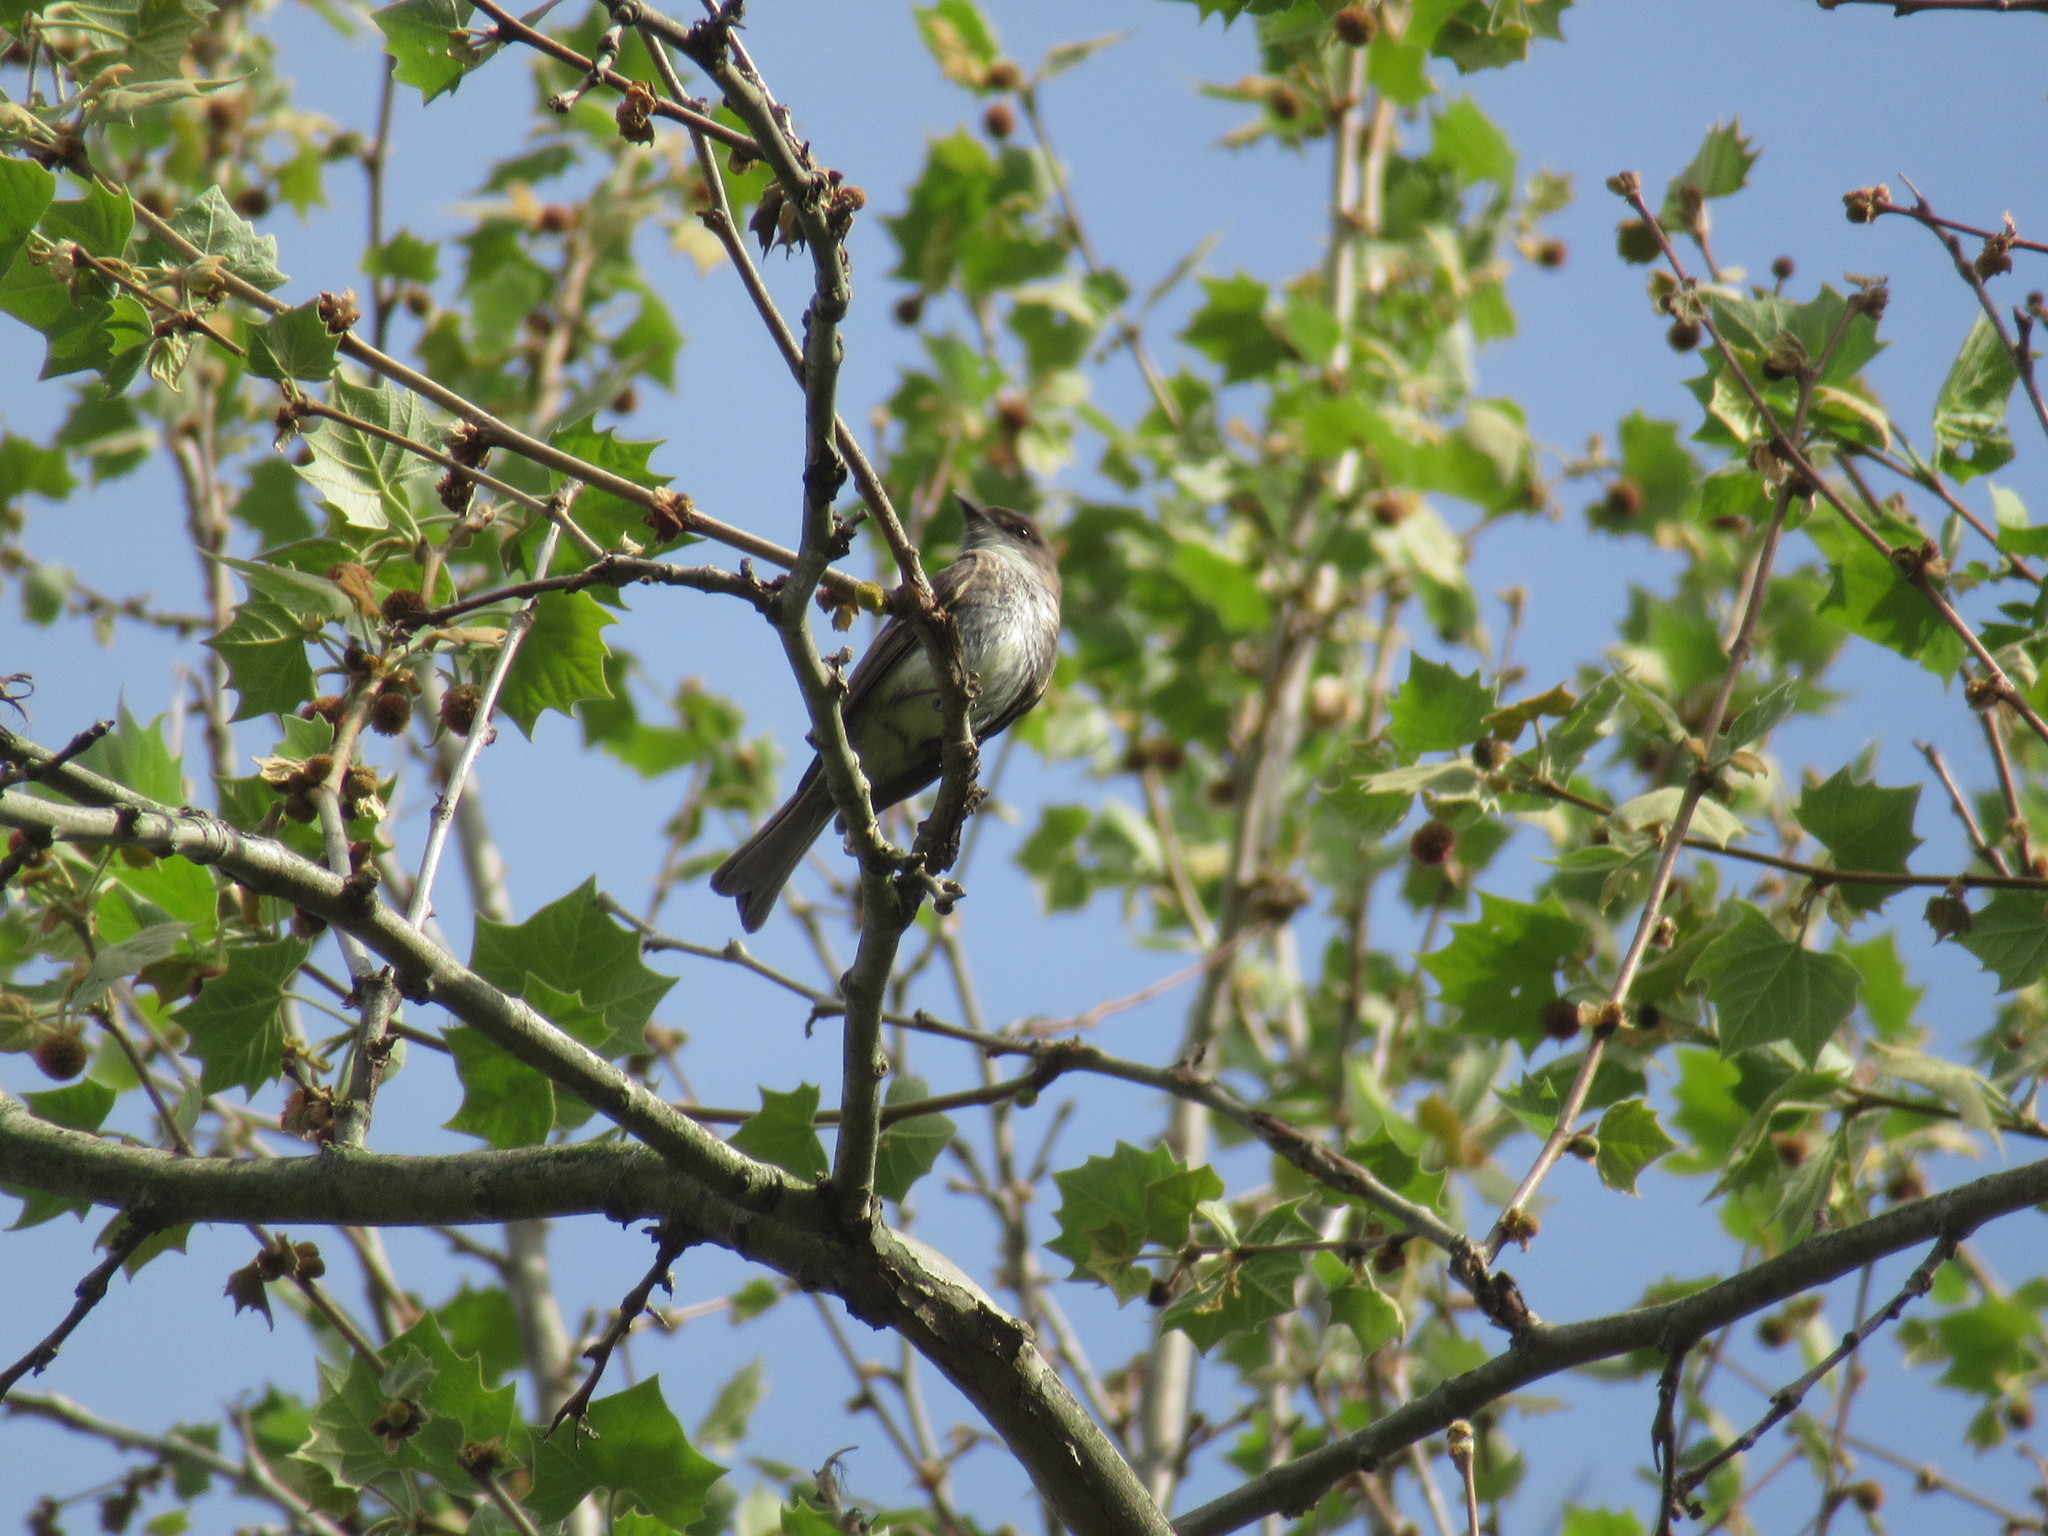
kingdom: Animalia
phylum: Chordata
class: Aves
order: Passeriformes
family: Tyrannidae
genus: Sayornis
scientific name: Sayornis phoebe
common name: Eastern phoebe
